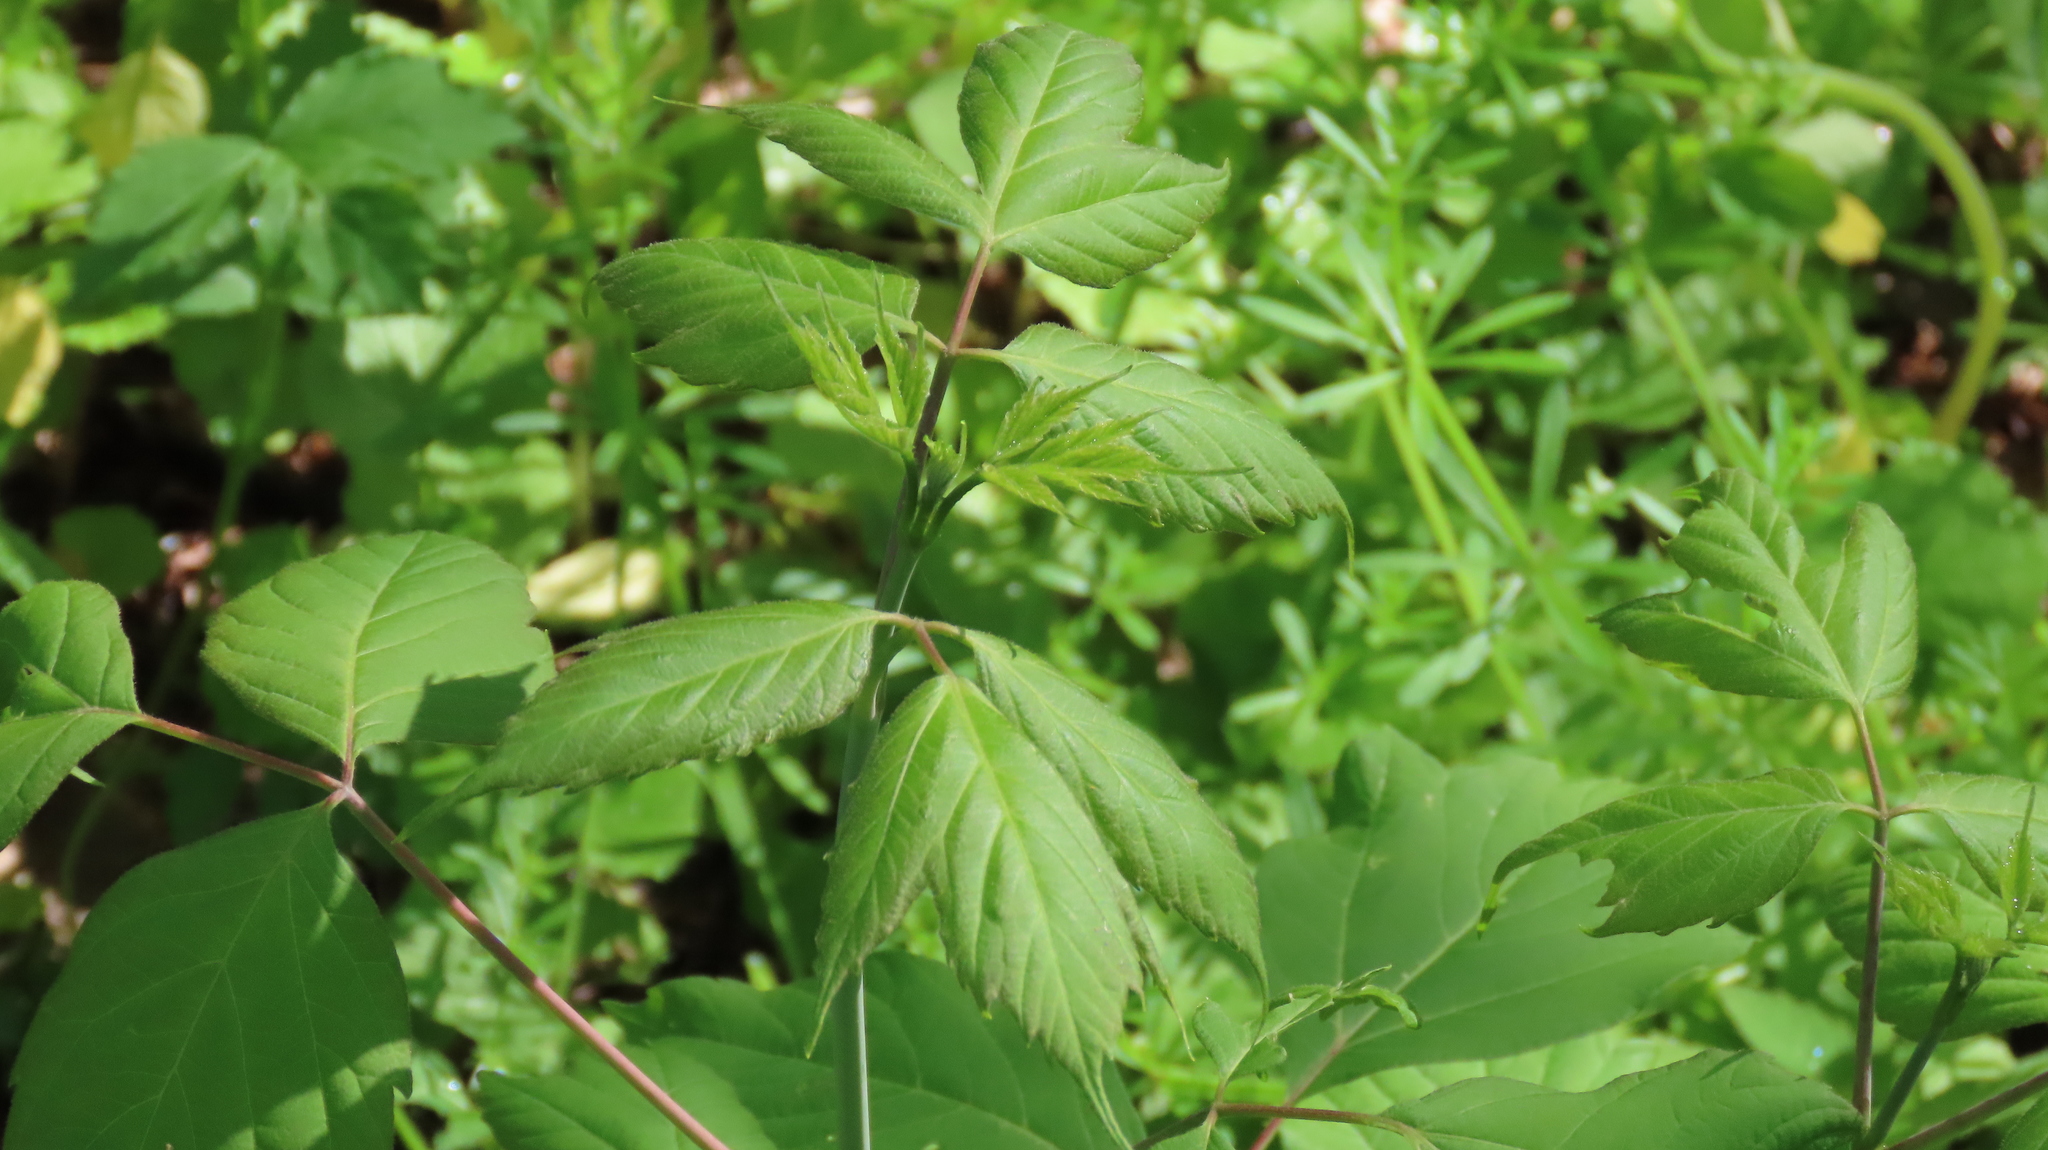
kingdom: Plantae
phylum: Tracheophyta
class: Magnoliopsida
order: Sapindales
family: Sapindaceae
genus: Acer
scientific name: Acer negundo
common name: Ashleaf maple
